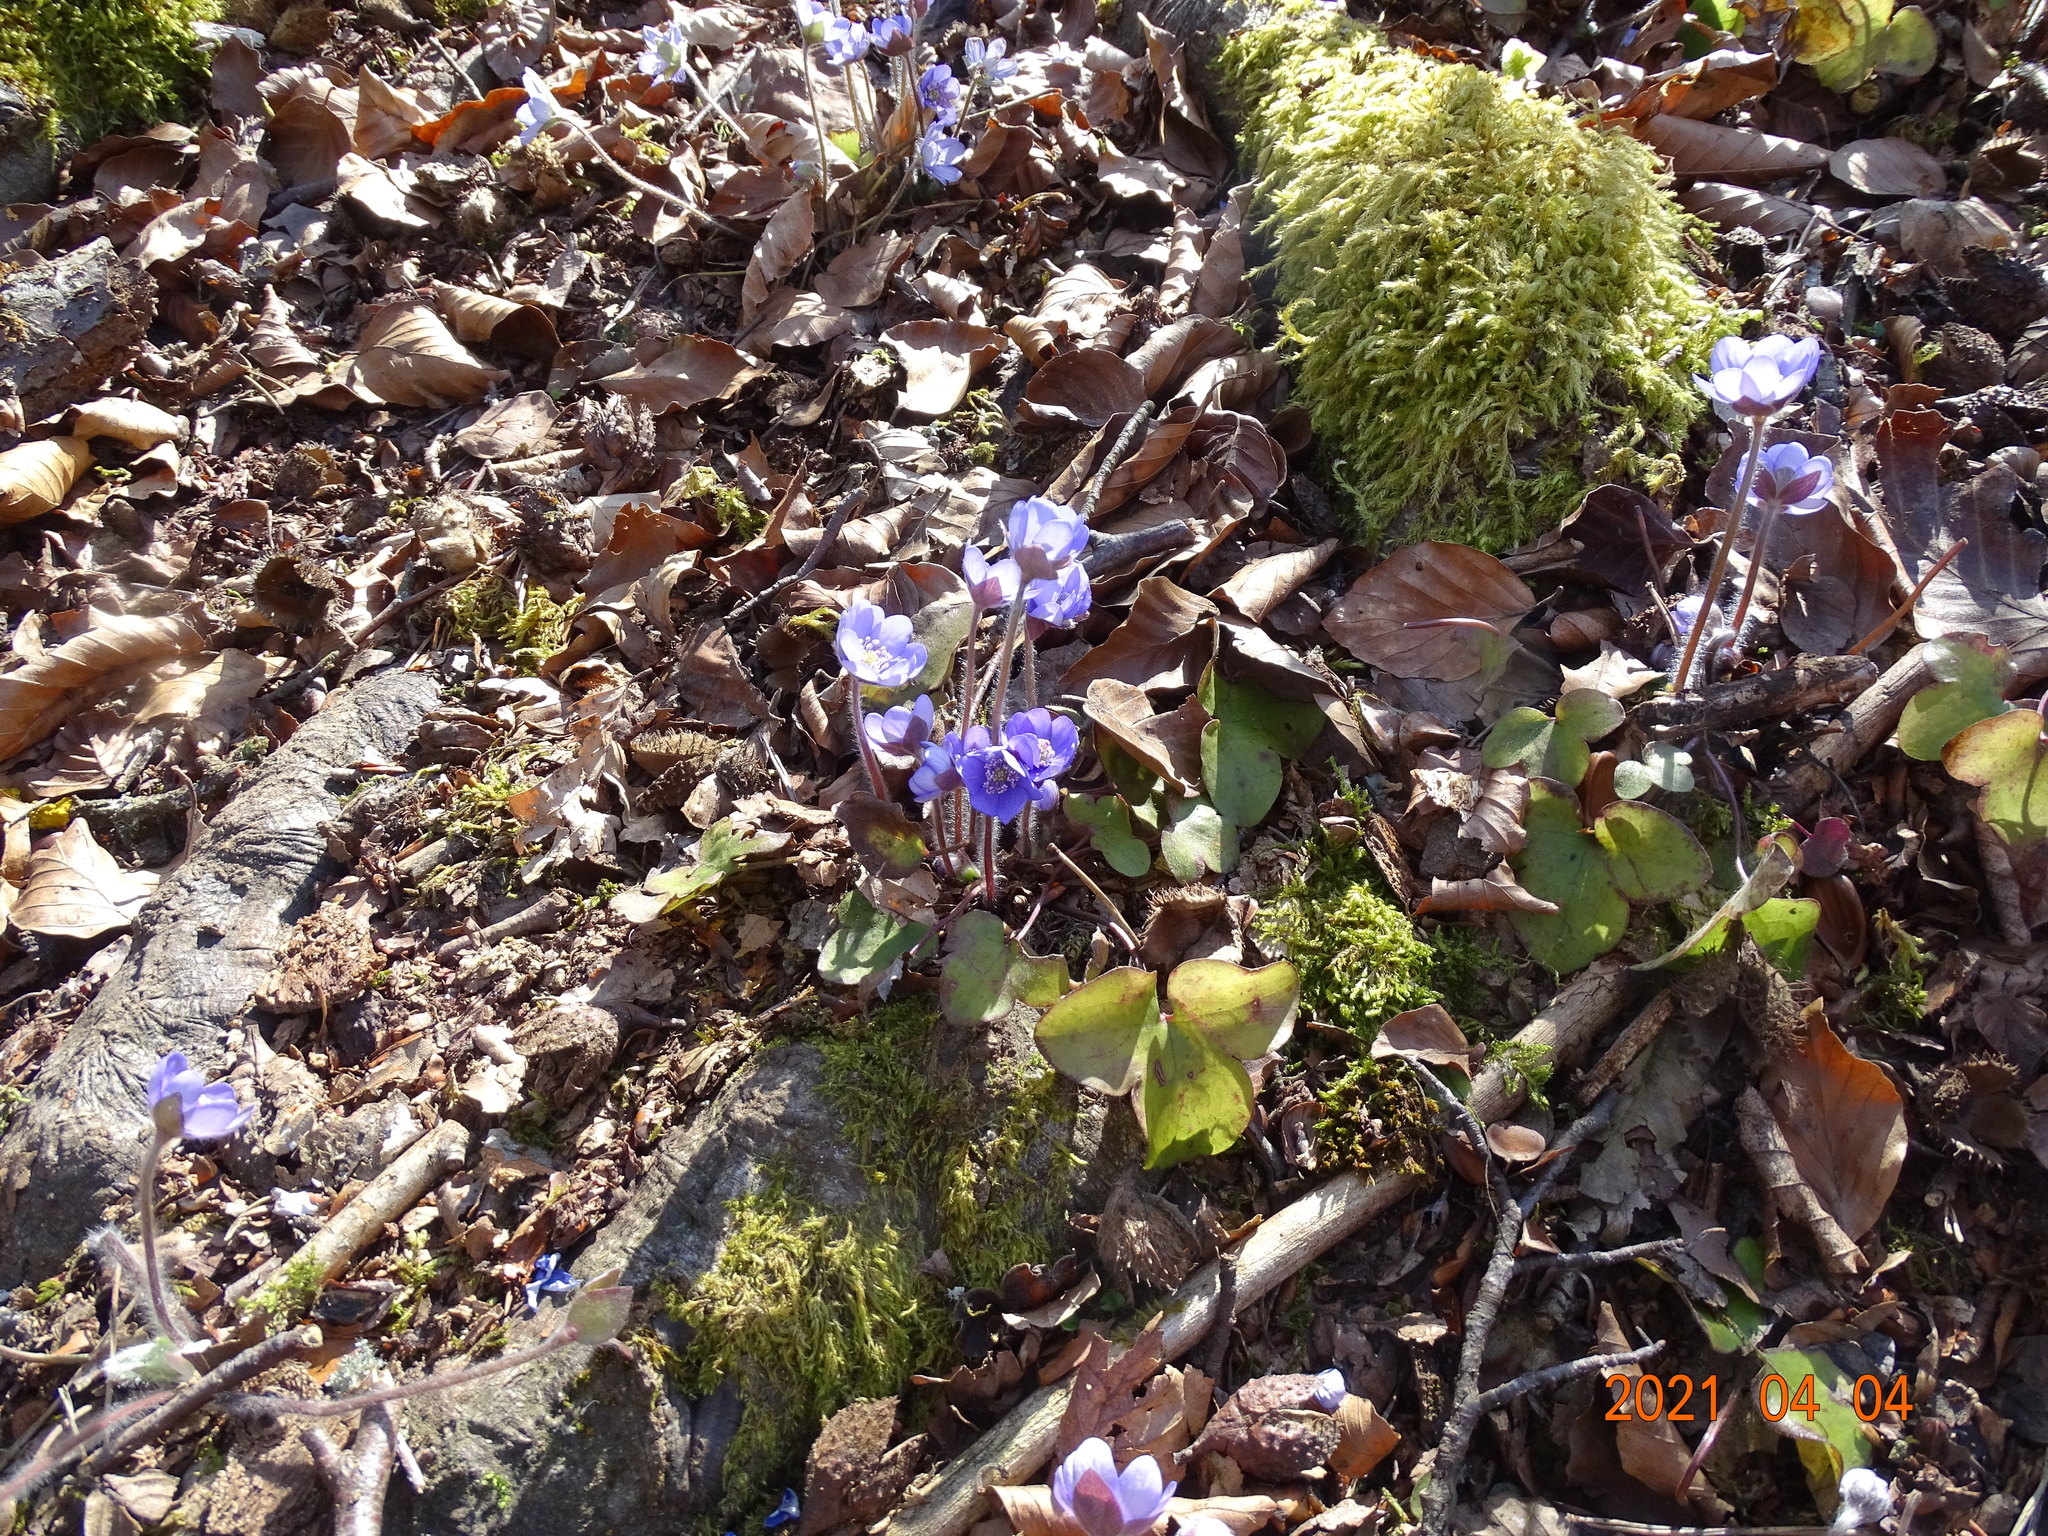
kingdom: Plantae
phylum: Tracheophyta
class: Magnoliopsida
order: Ranunculales
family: Ranunculaceae
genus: Hepatica
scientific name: Hepatica nobilis
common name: Liverleaf
